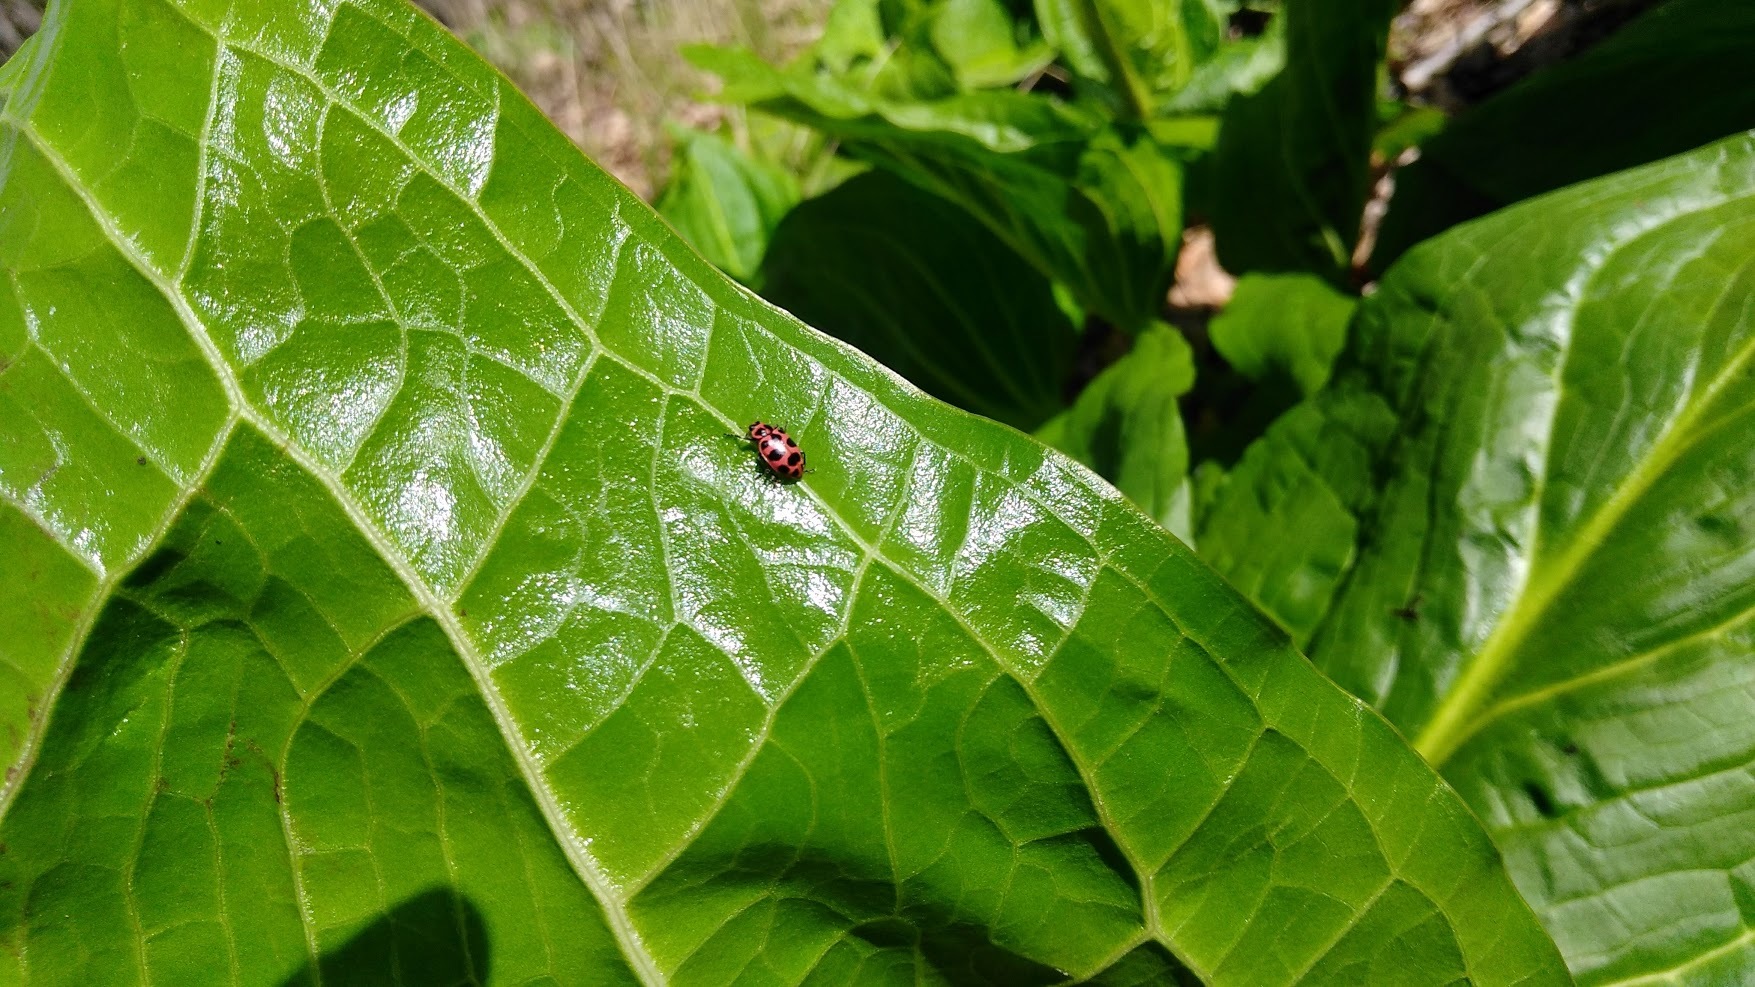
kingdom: Animalia
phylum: Arthropoda
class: Insecta
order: Coleoptera
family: Coccinellidae
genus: Coleomegilla
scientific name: Coleomegilla maculata
